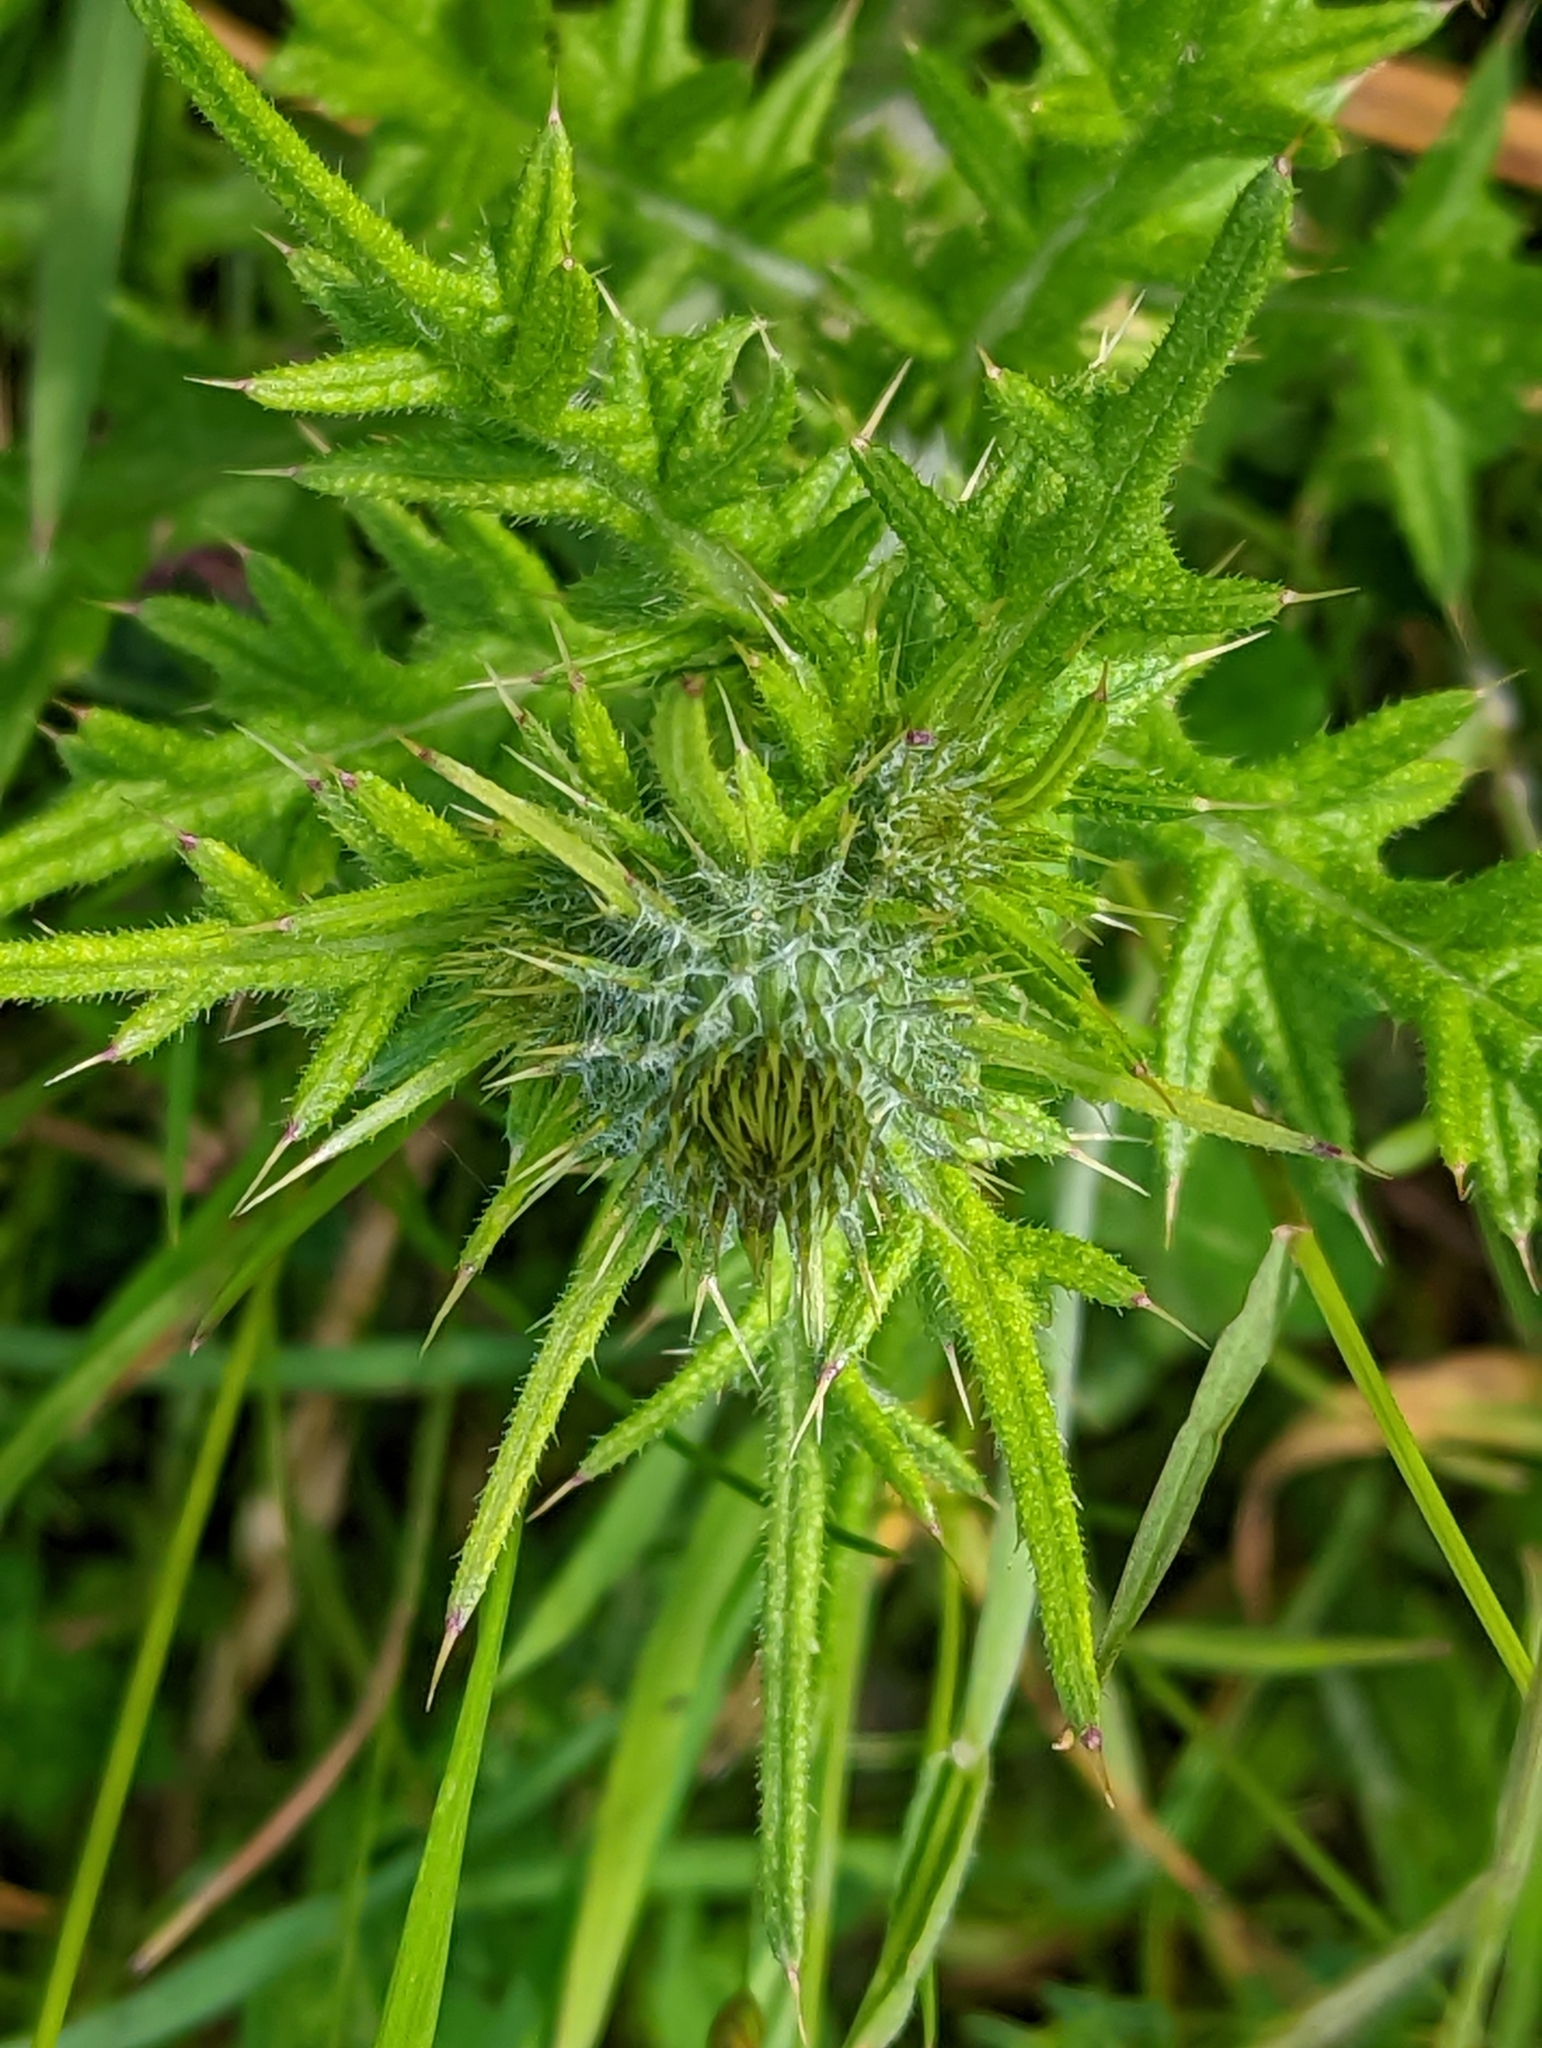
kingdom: Plantae
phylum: Tracheophyta
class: Magnoliopsida
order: Asterales
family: Asteraceae
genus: Cirsium
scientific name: Cirsium vulgare
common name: Bull thistle
